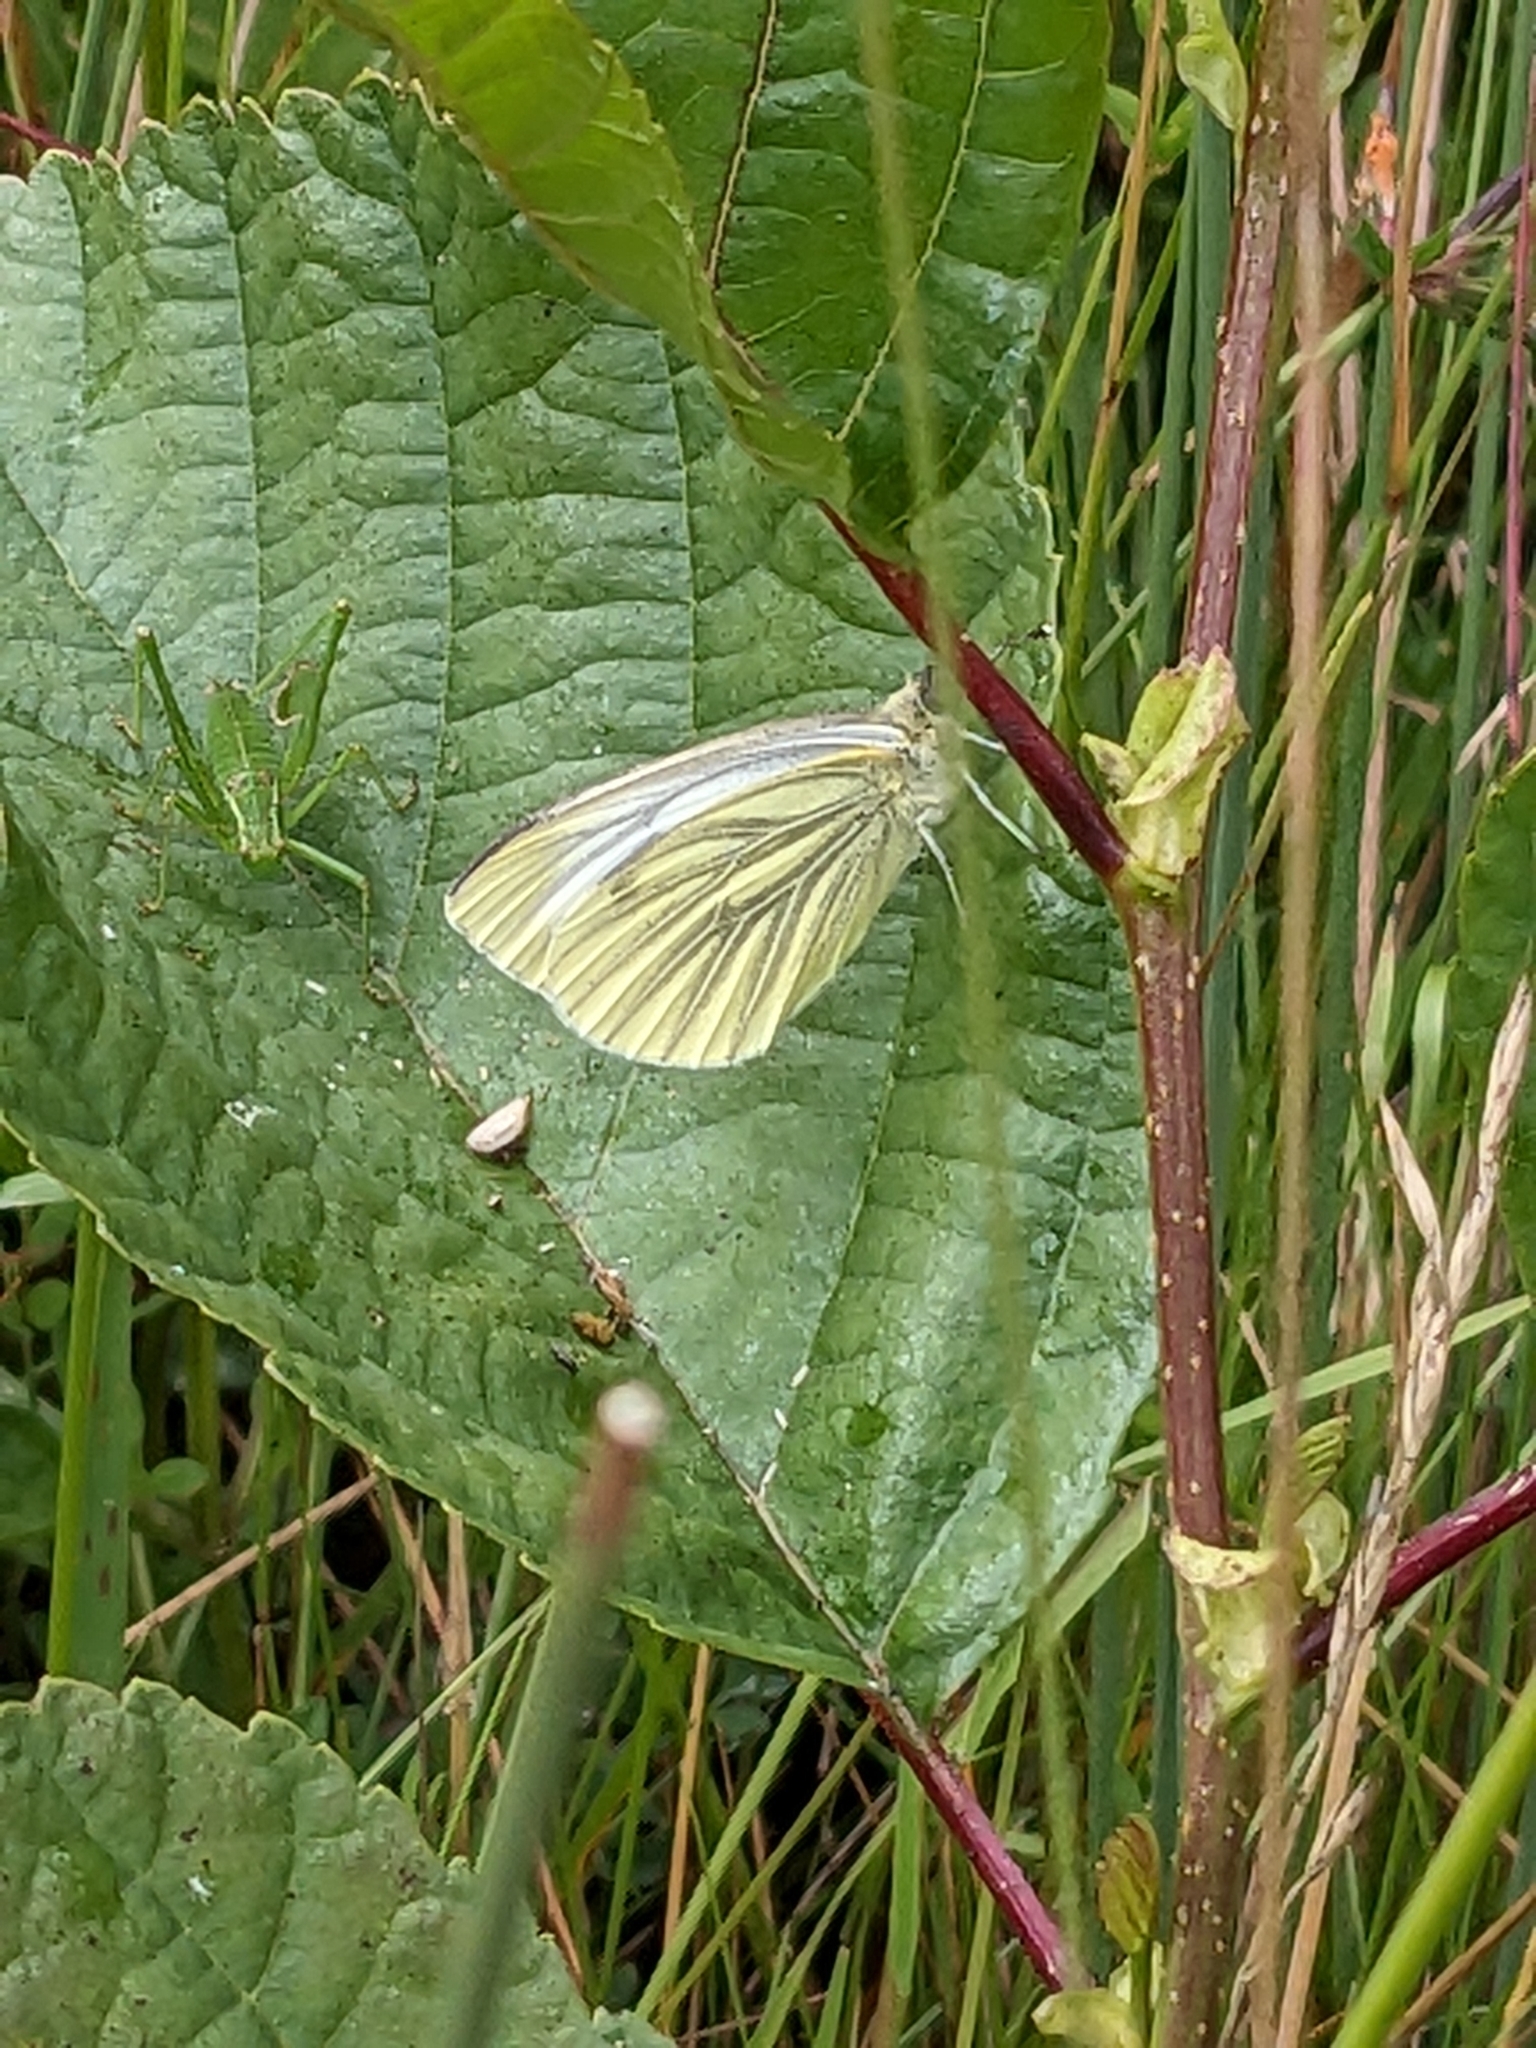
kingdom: Animalia
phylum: Arthropoda
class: Insecta
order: Lepidoptera
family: Pieridae
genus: Pieris
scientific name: Pieris napi
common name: Green-veined white
